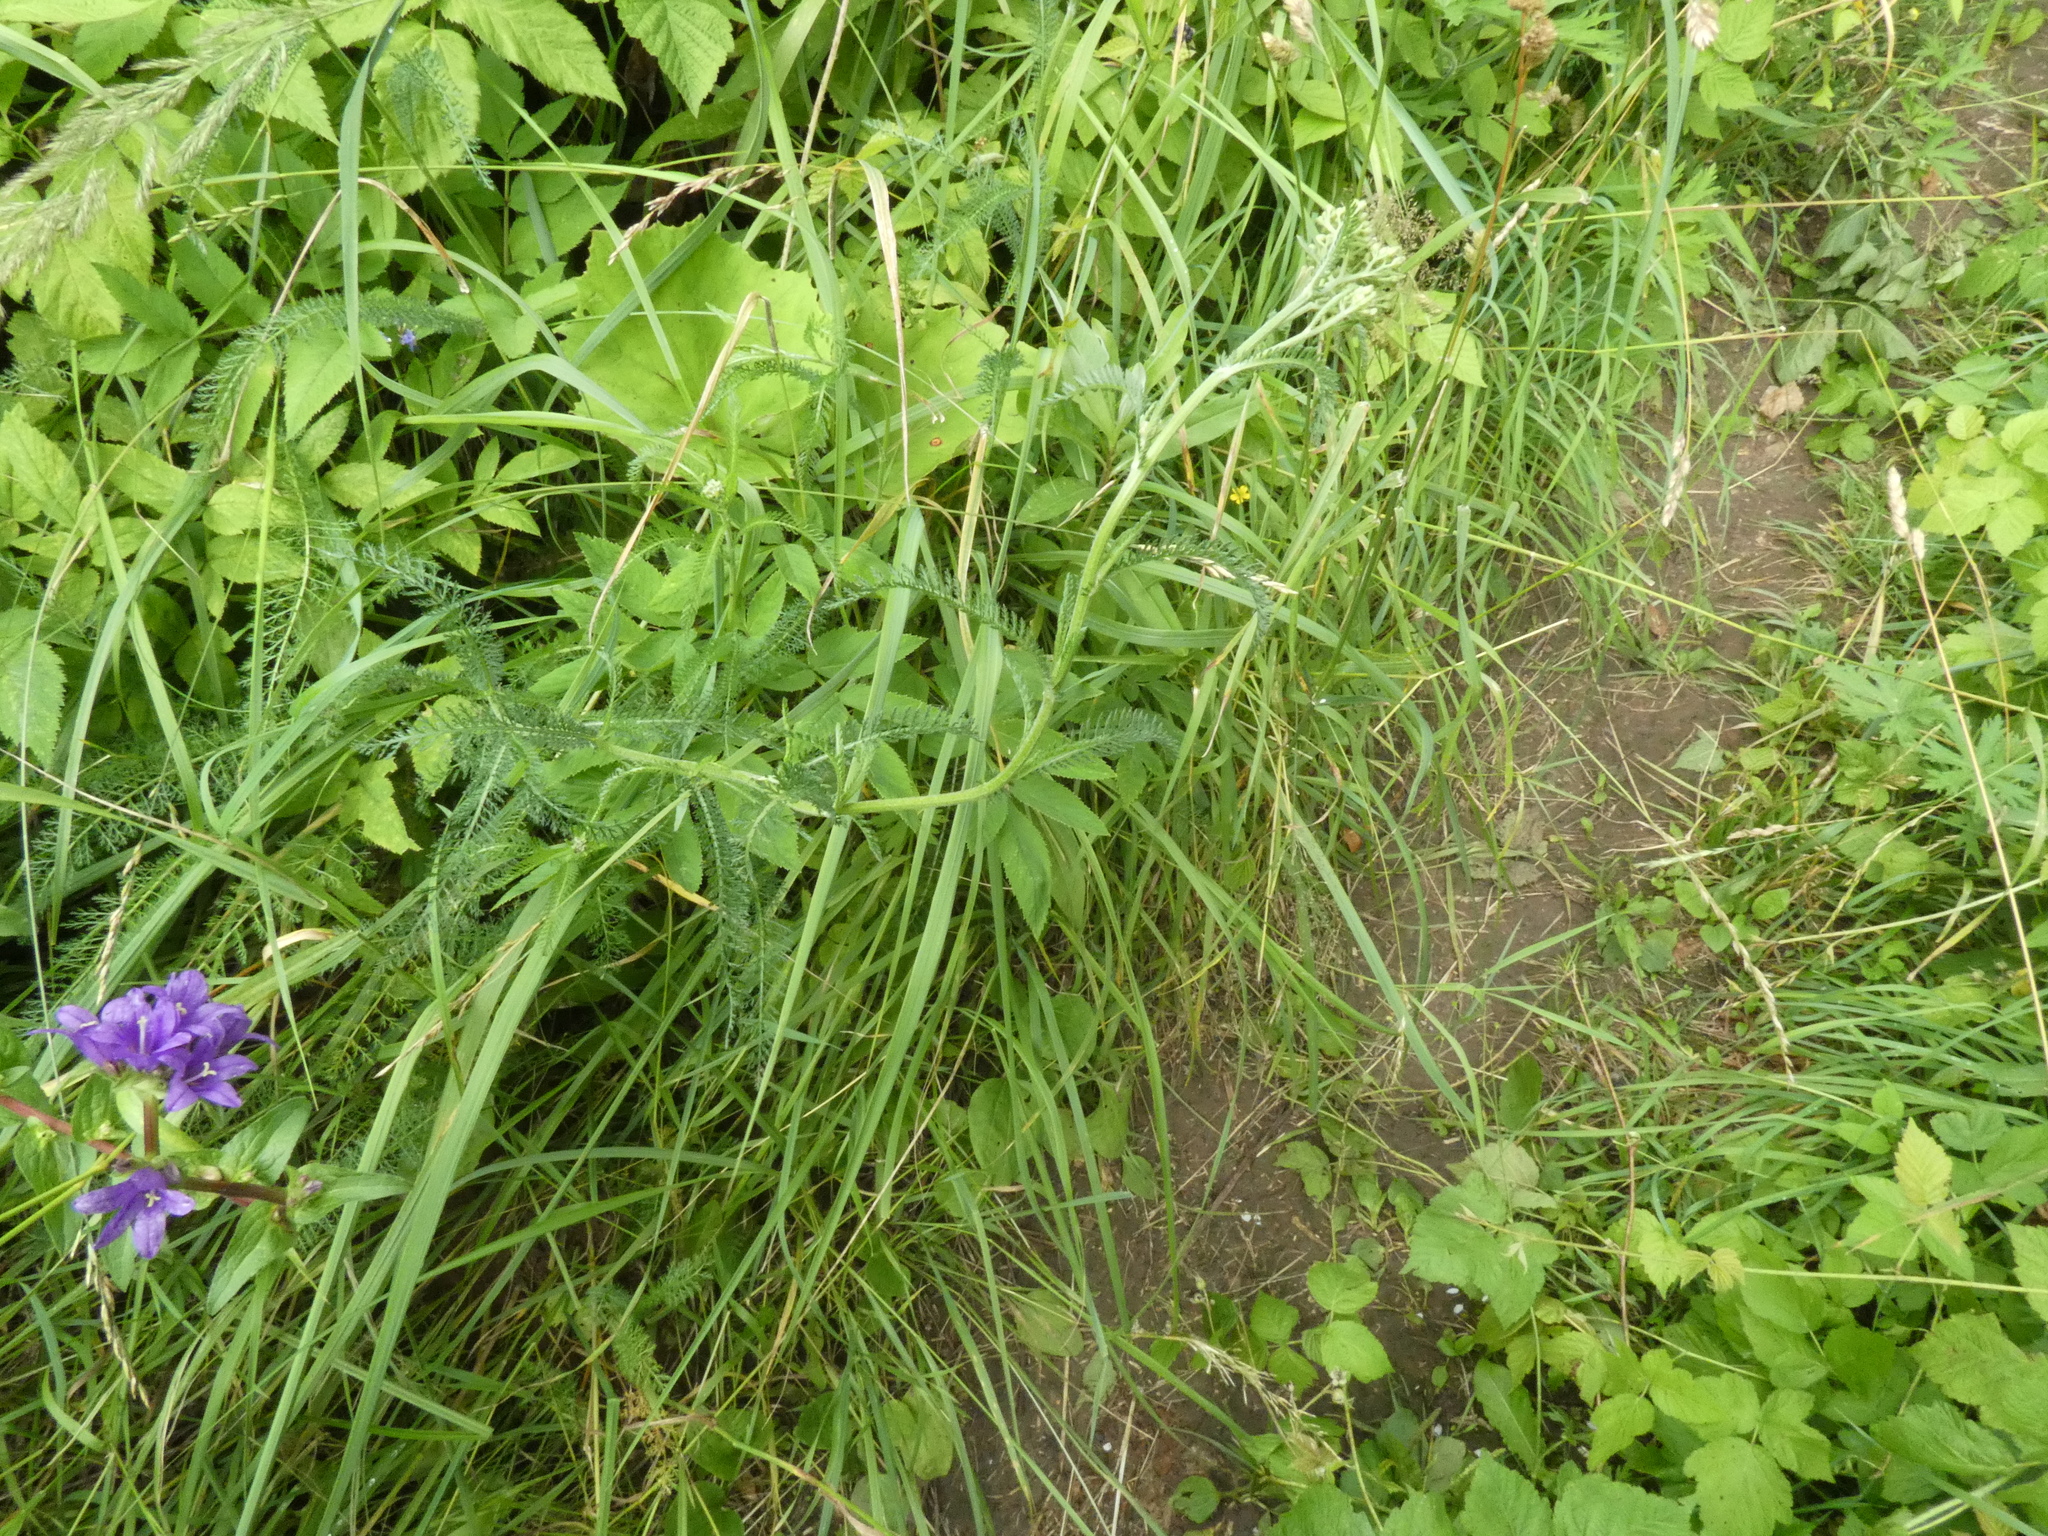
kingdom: Plantae
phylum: Tracheophyta
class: Magnoliopsida
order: Asterales
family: Asteraceae
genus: Achillea
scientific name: Achillea millefolium
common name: Yarrow
